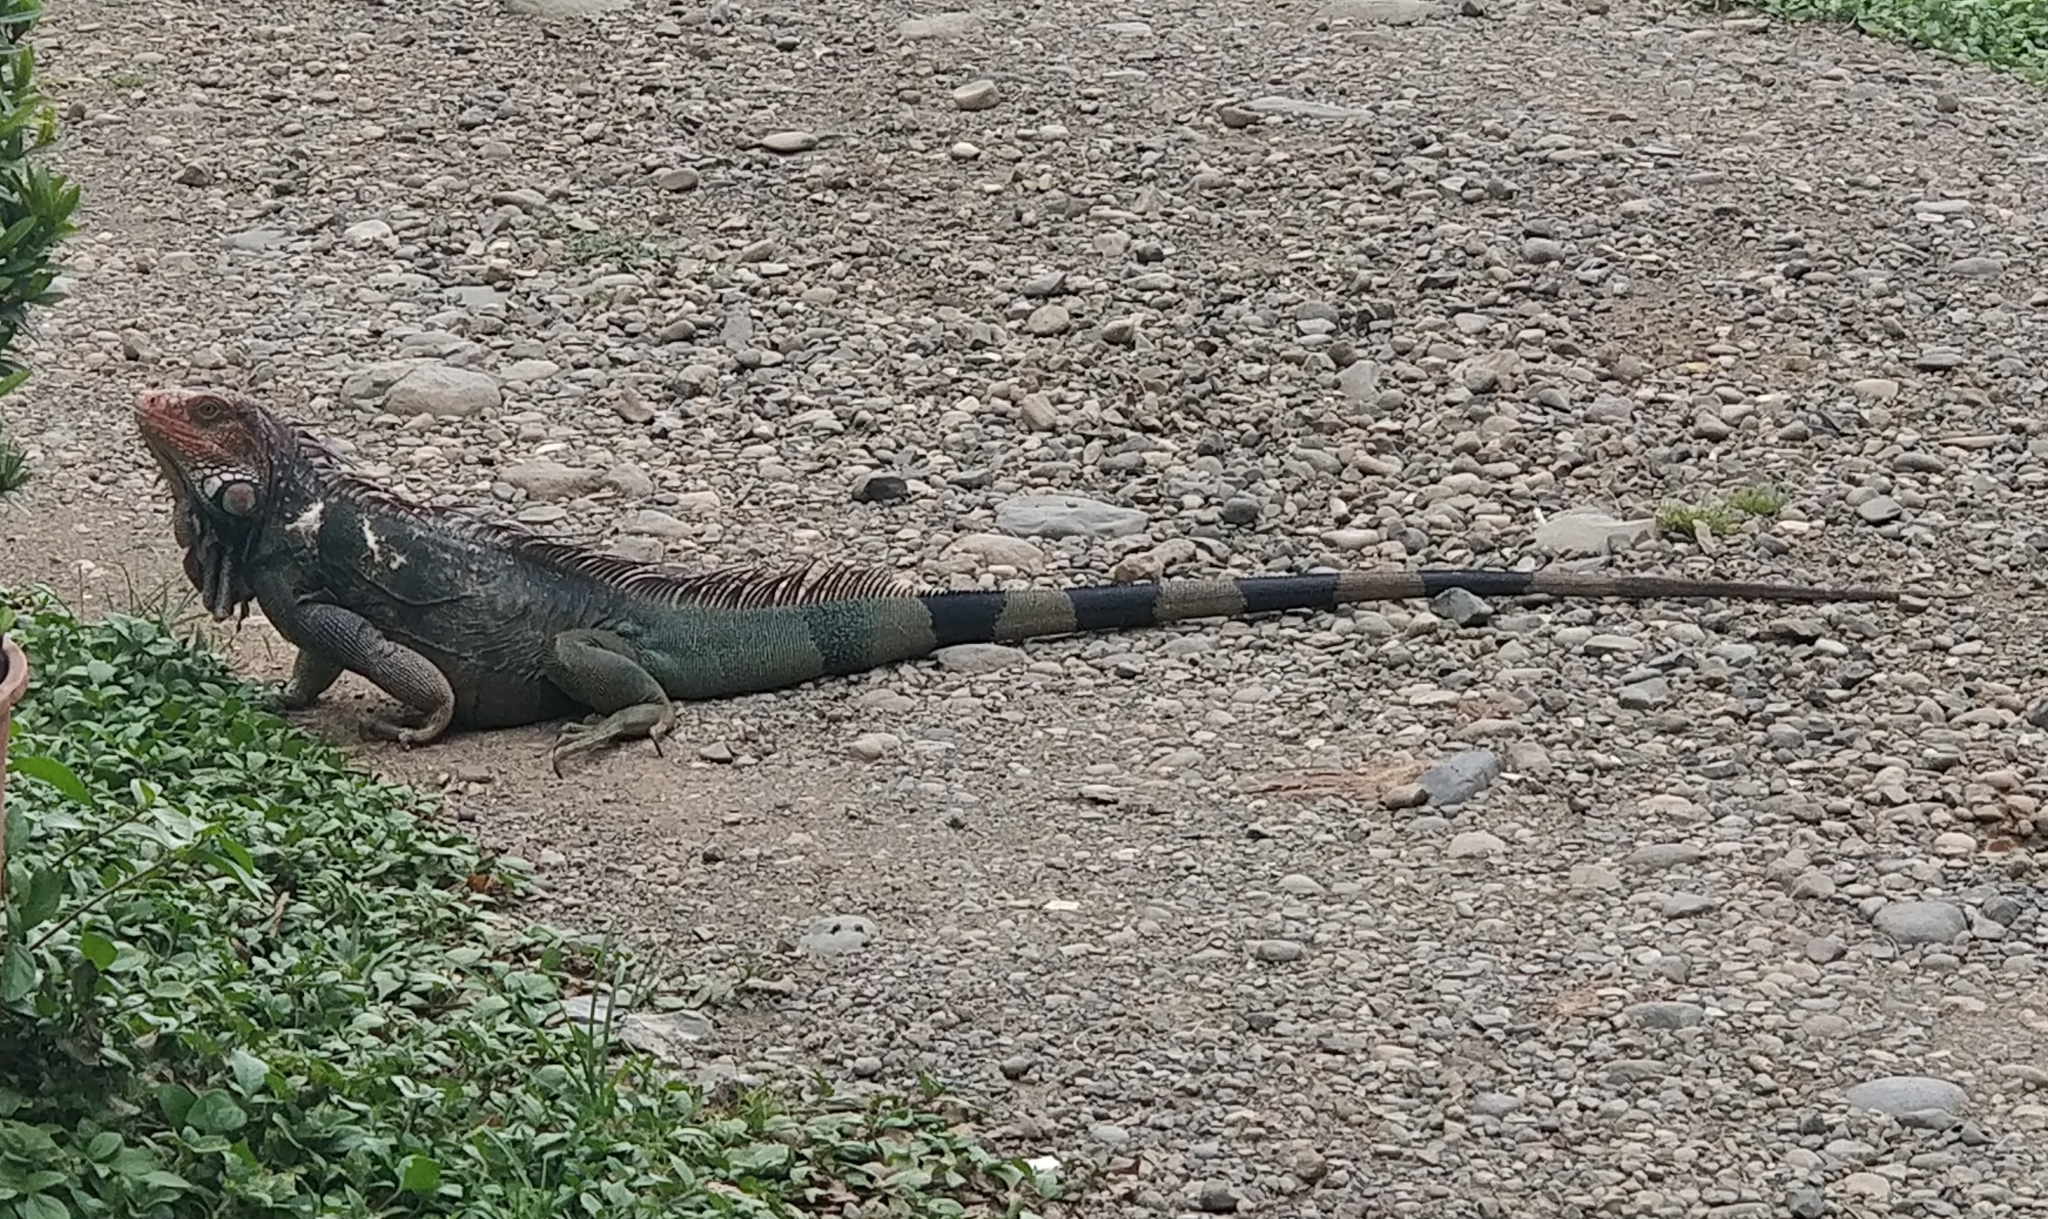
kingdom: Animalia
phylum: Chordata
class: Squamata
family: Iguanidae
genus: Iguana
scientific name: Iguana iguana
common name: Green iguana
